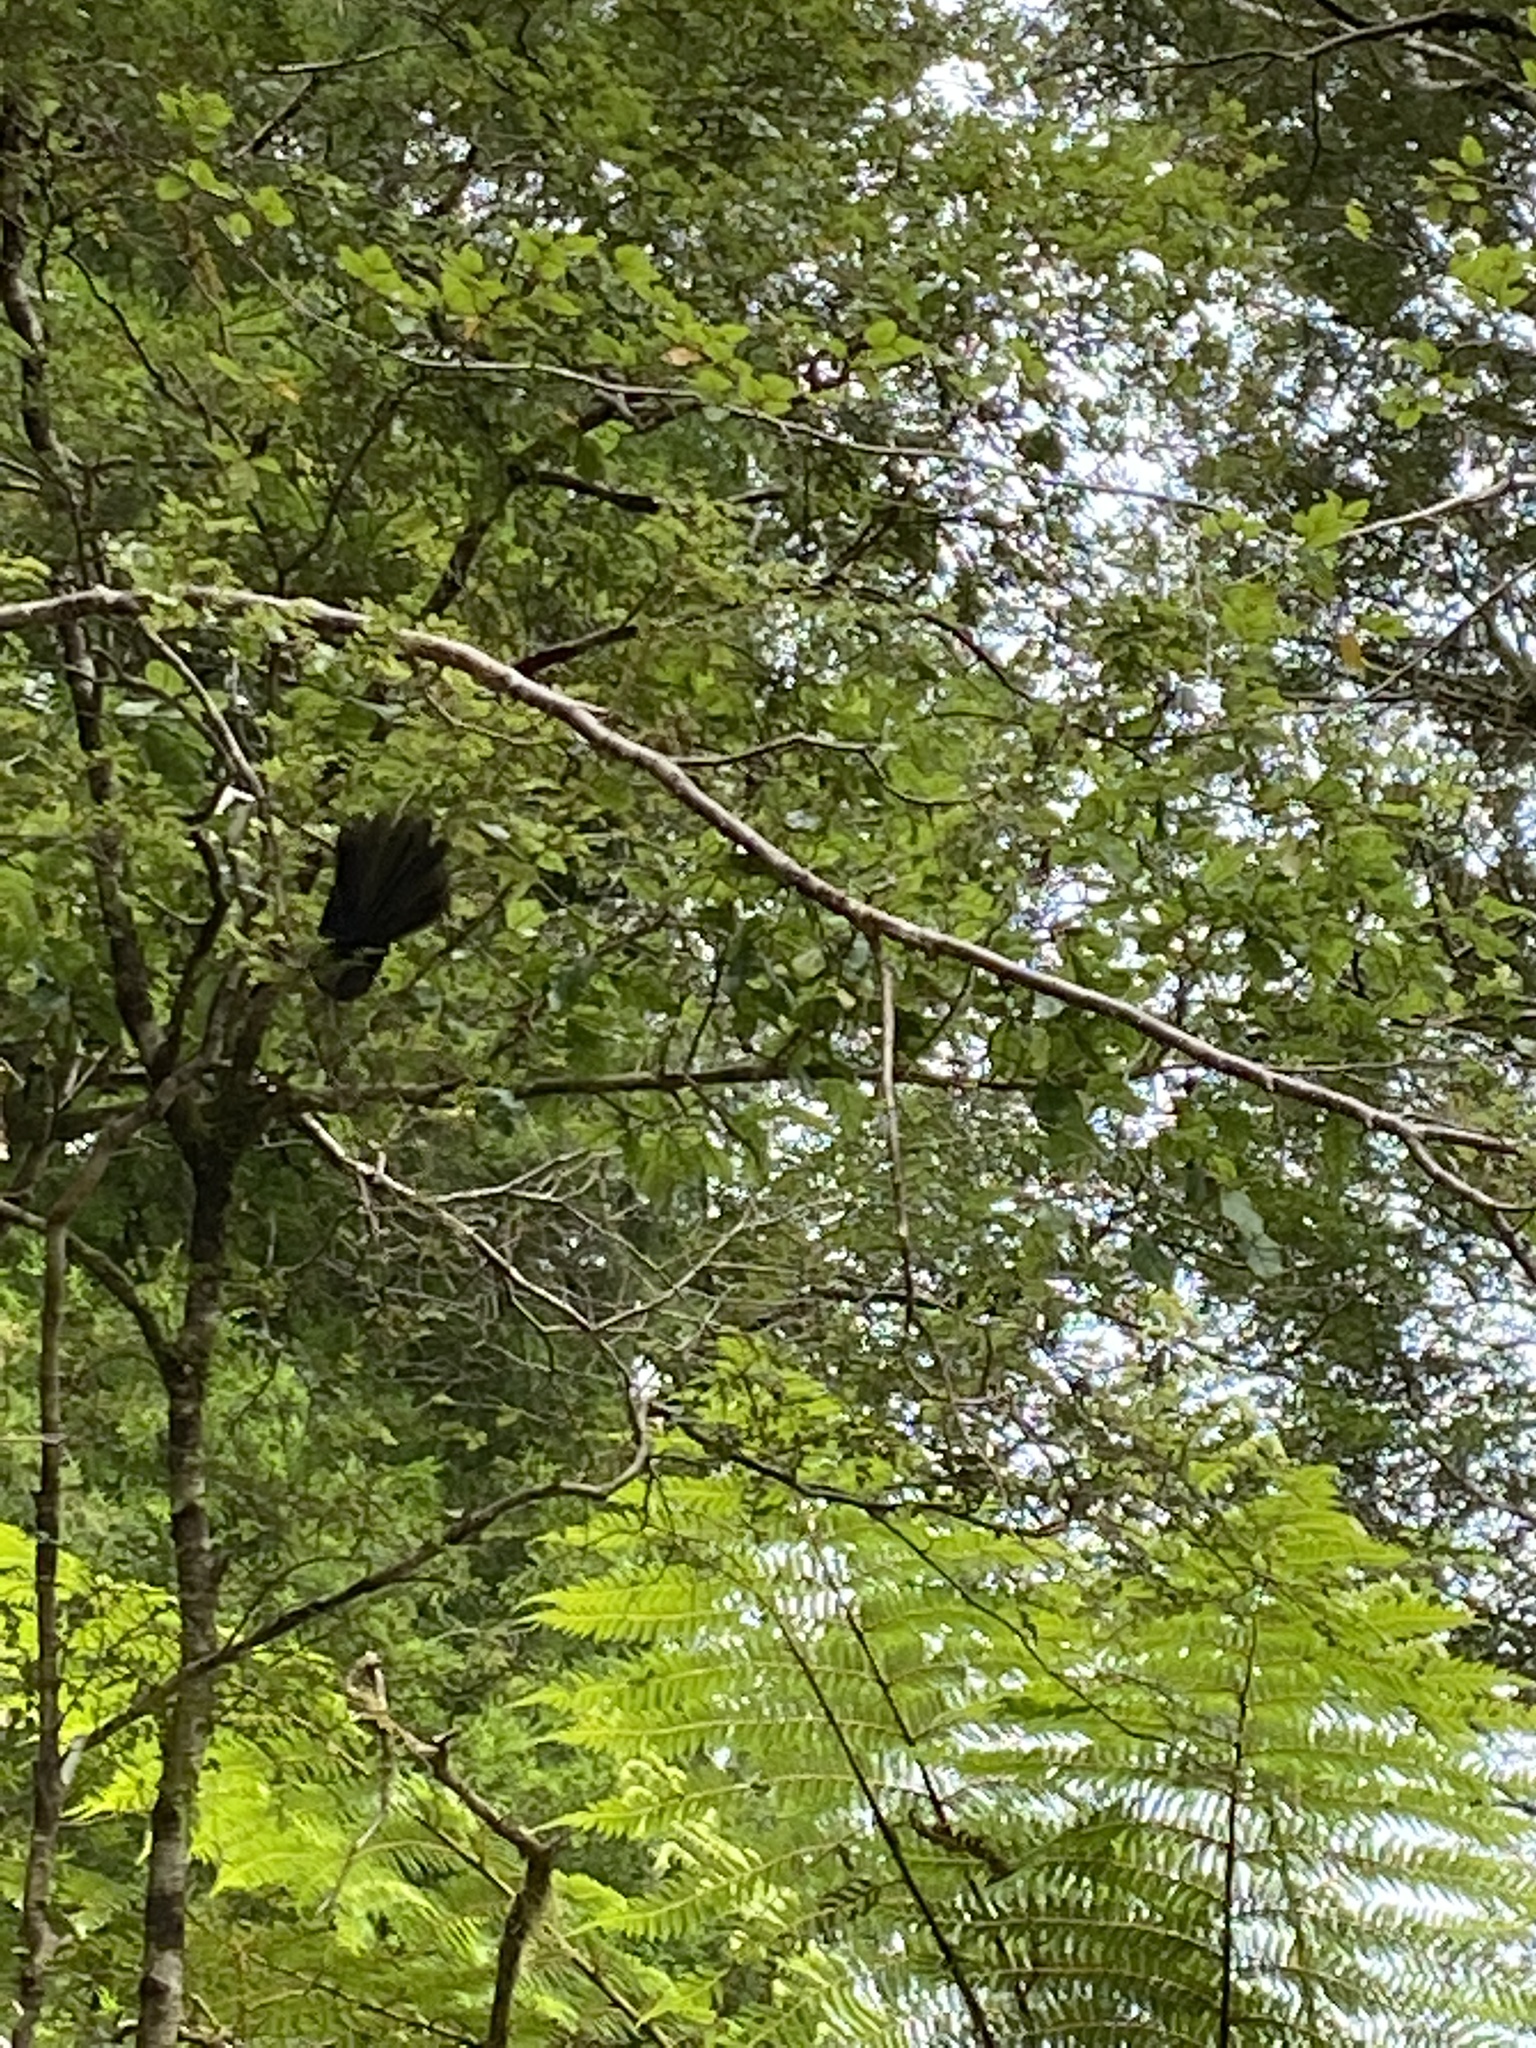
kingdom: Animalia
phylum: Chordata
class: Aves
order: Passeriformes
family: Rhipiduridae
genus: Rhipidura
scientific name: Rhipidura fuliginosa
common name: New zealand fantail
